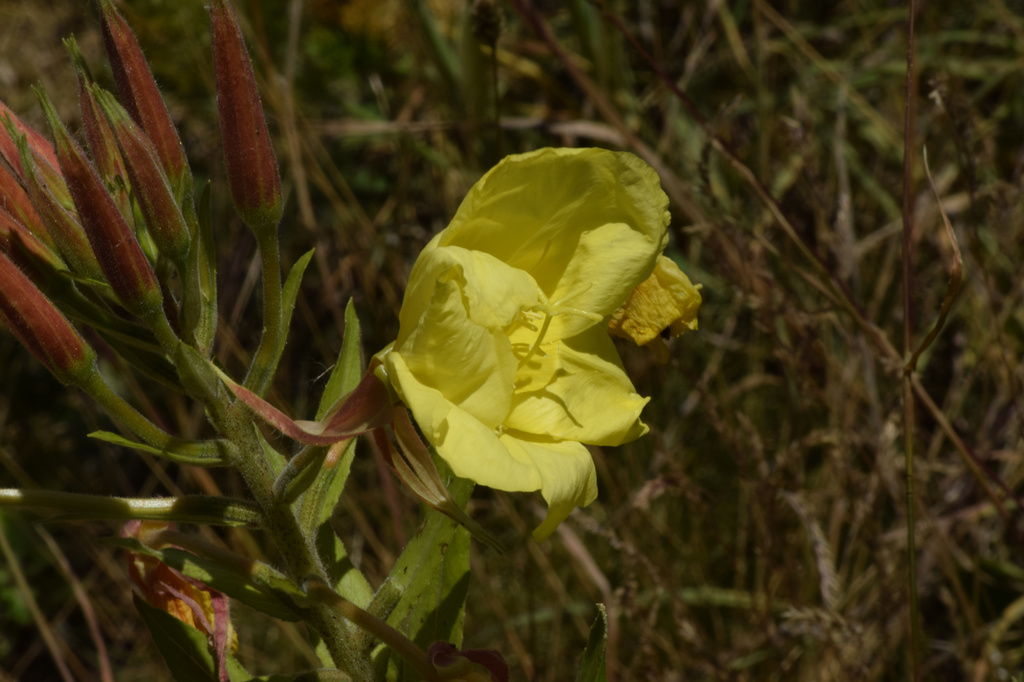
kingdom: Plantae
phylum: Tracheophyta
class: Magnoliopsida
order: Myrtales
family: Onagraceae
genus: Oenothera
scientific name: Oenothera glazioviana
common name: Large-flowered evening-primrose
